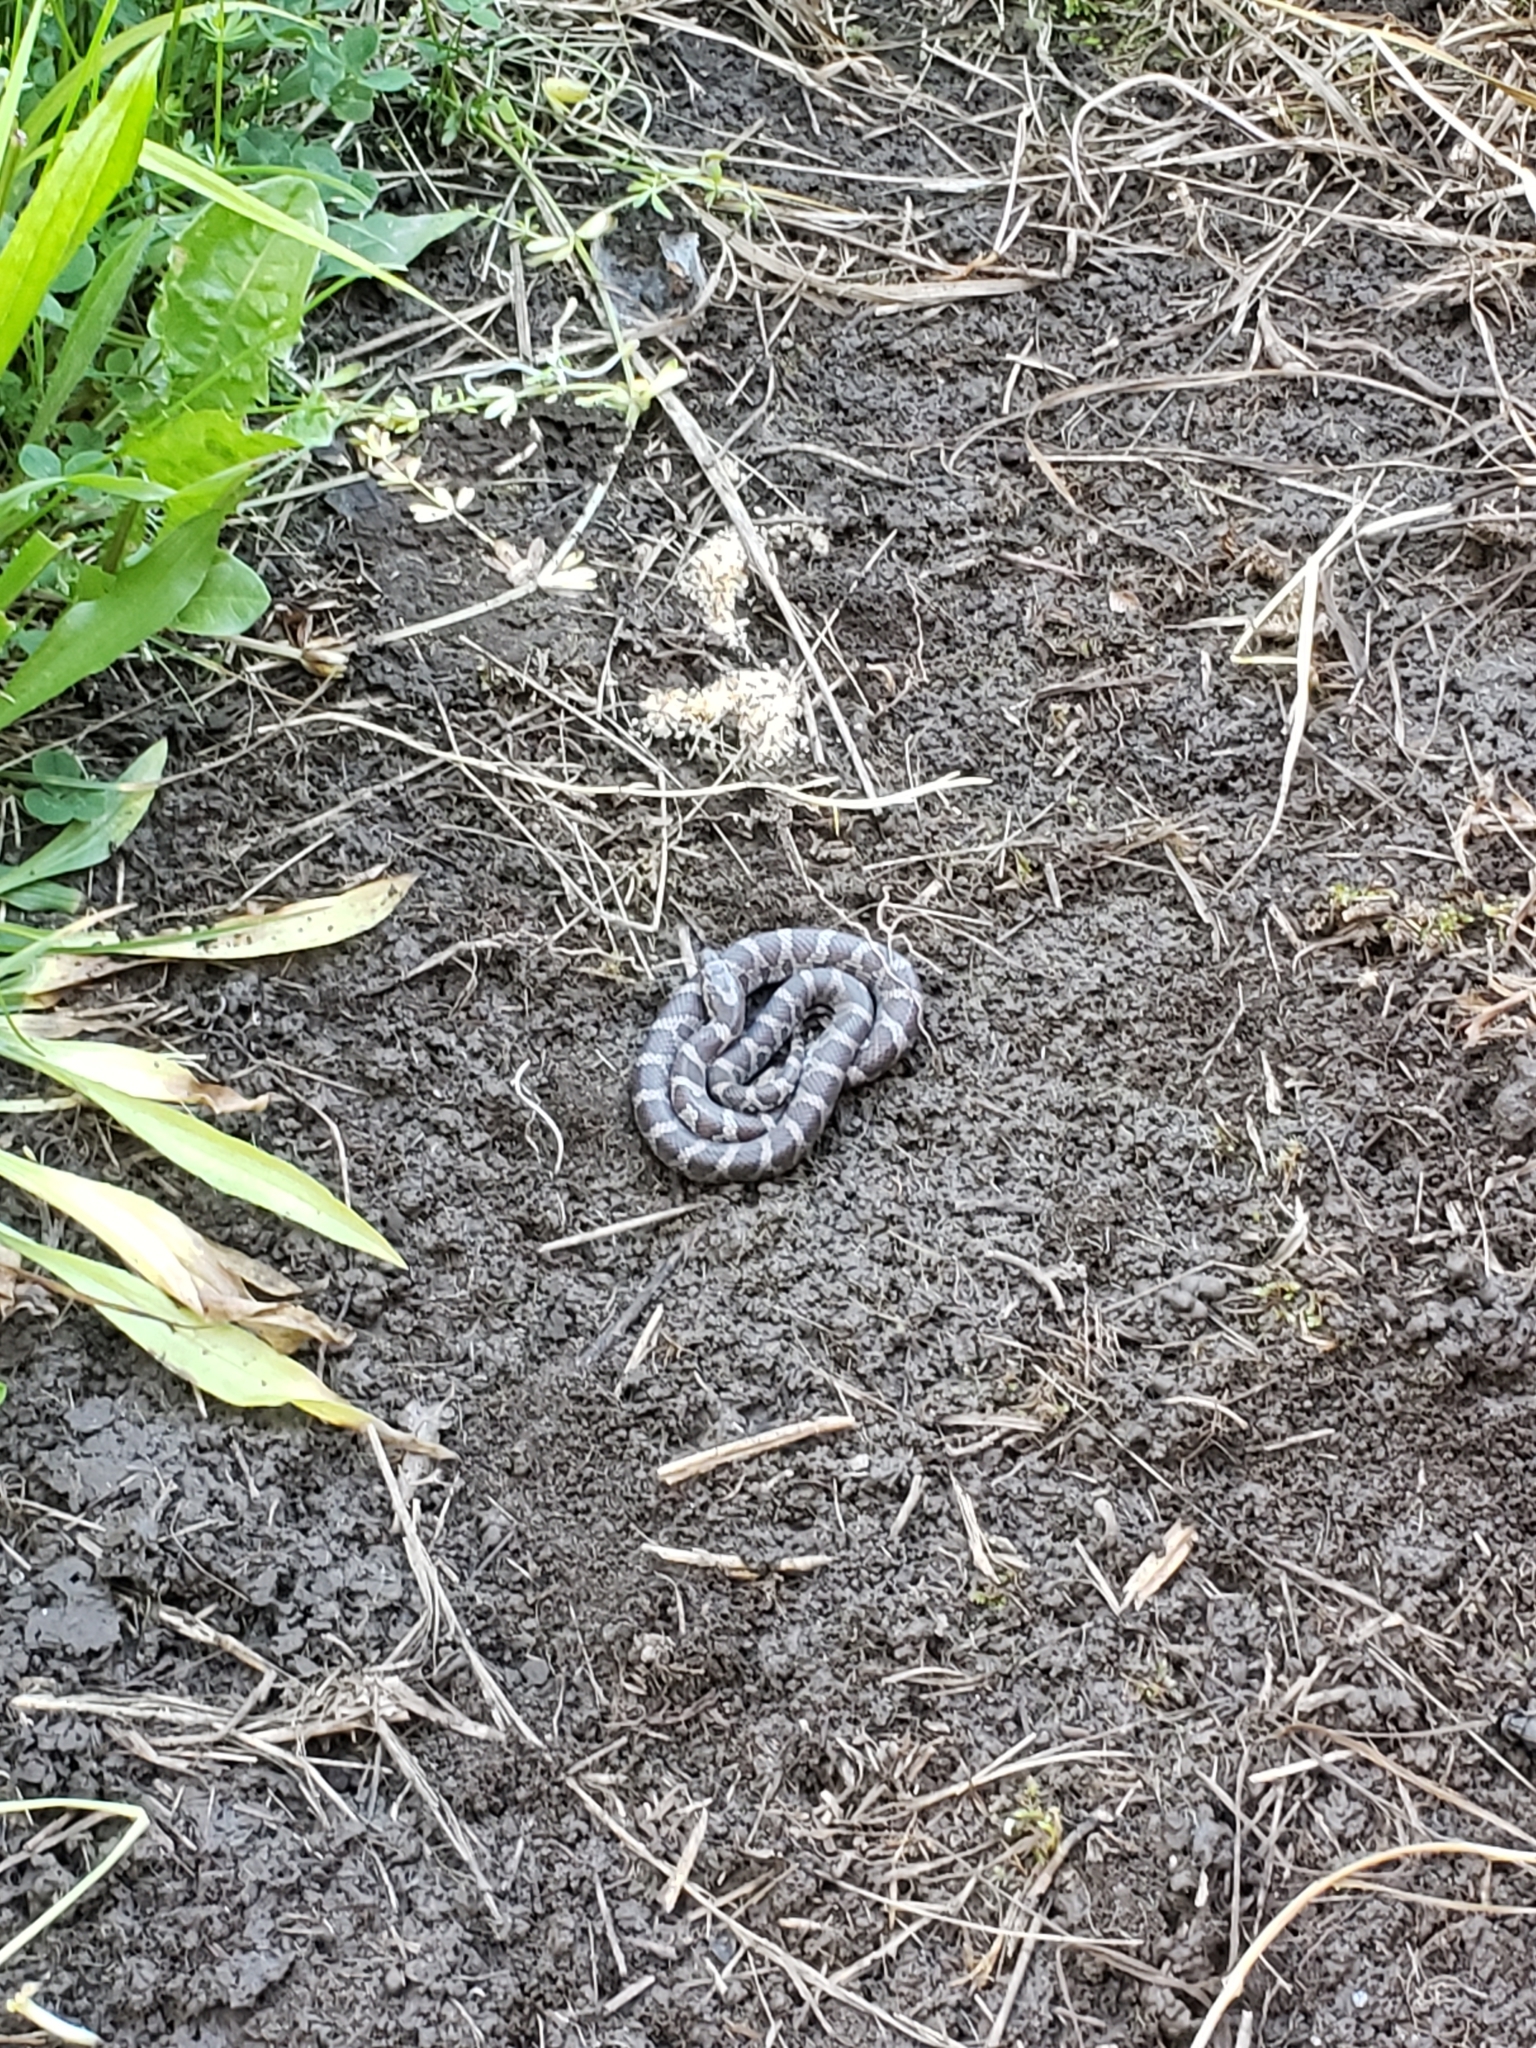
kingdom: Animalia
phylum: Chordata
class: Squamata
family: Colubridae
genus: Lampropeltis
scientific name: Lampropeltis triangulum
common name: Eastern milksnake
